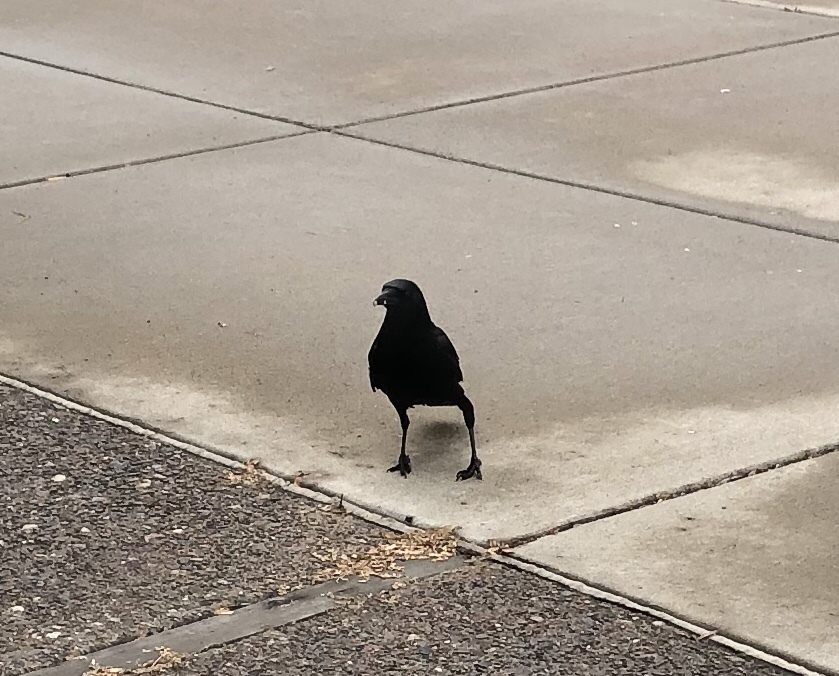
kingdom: Animalia
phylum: Chordata
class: Aves
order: Passeriformes
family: Corvidae
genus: Corvus
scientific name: Corvus brachyrhynchos
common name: American crow
